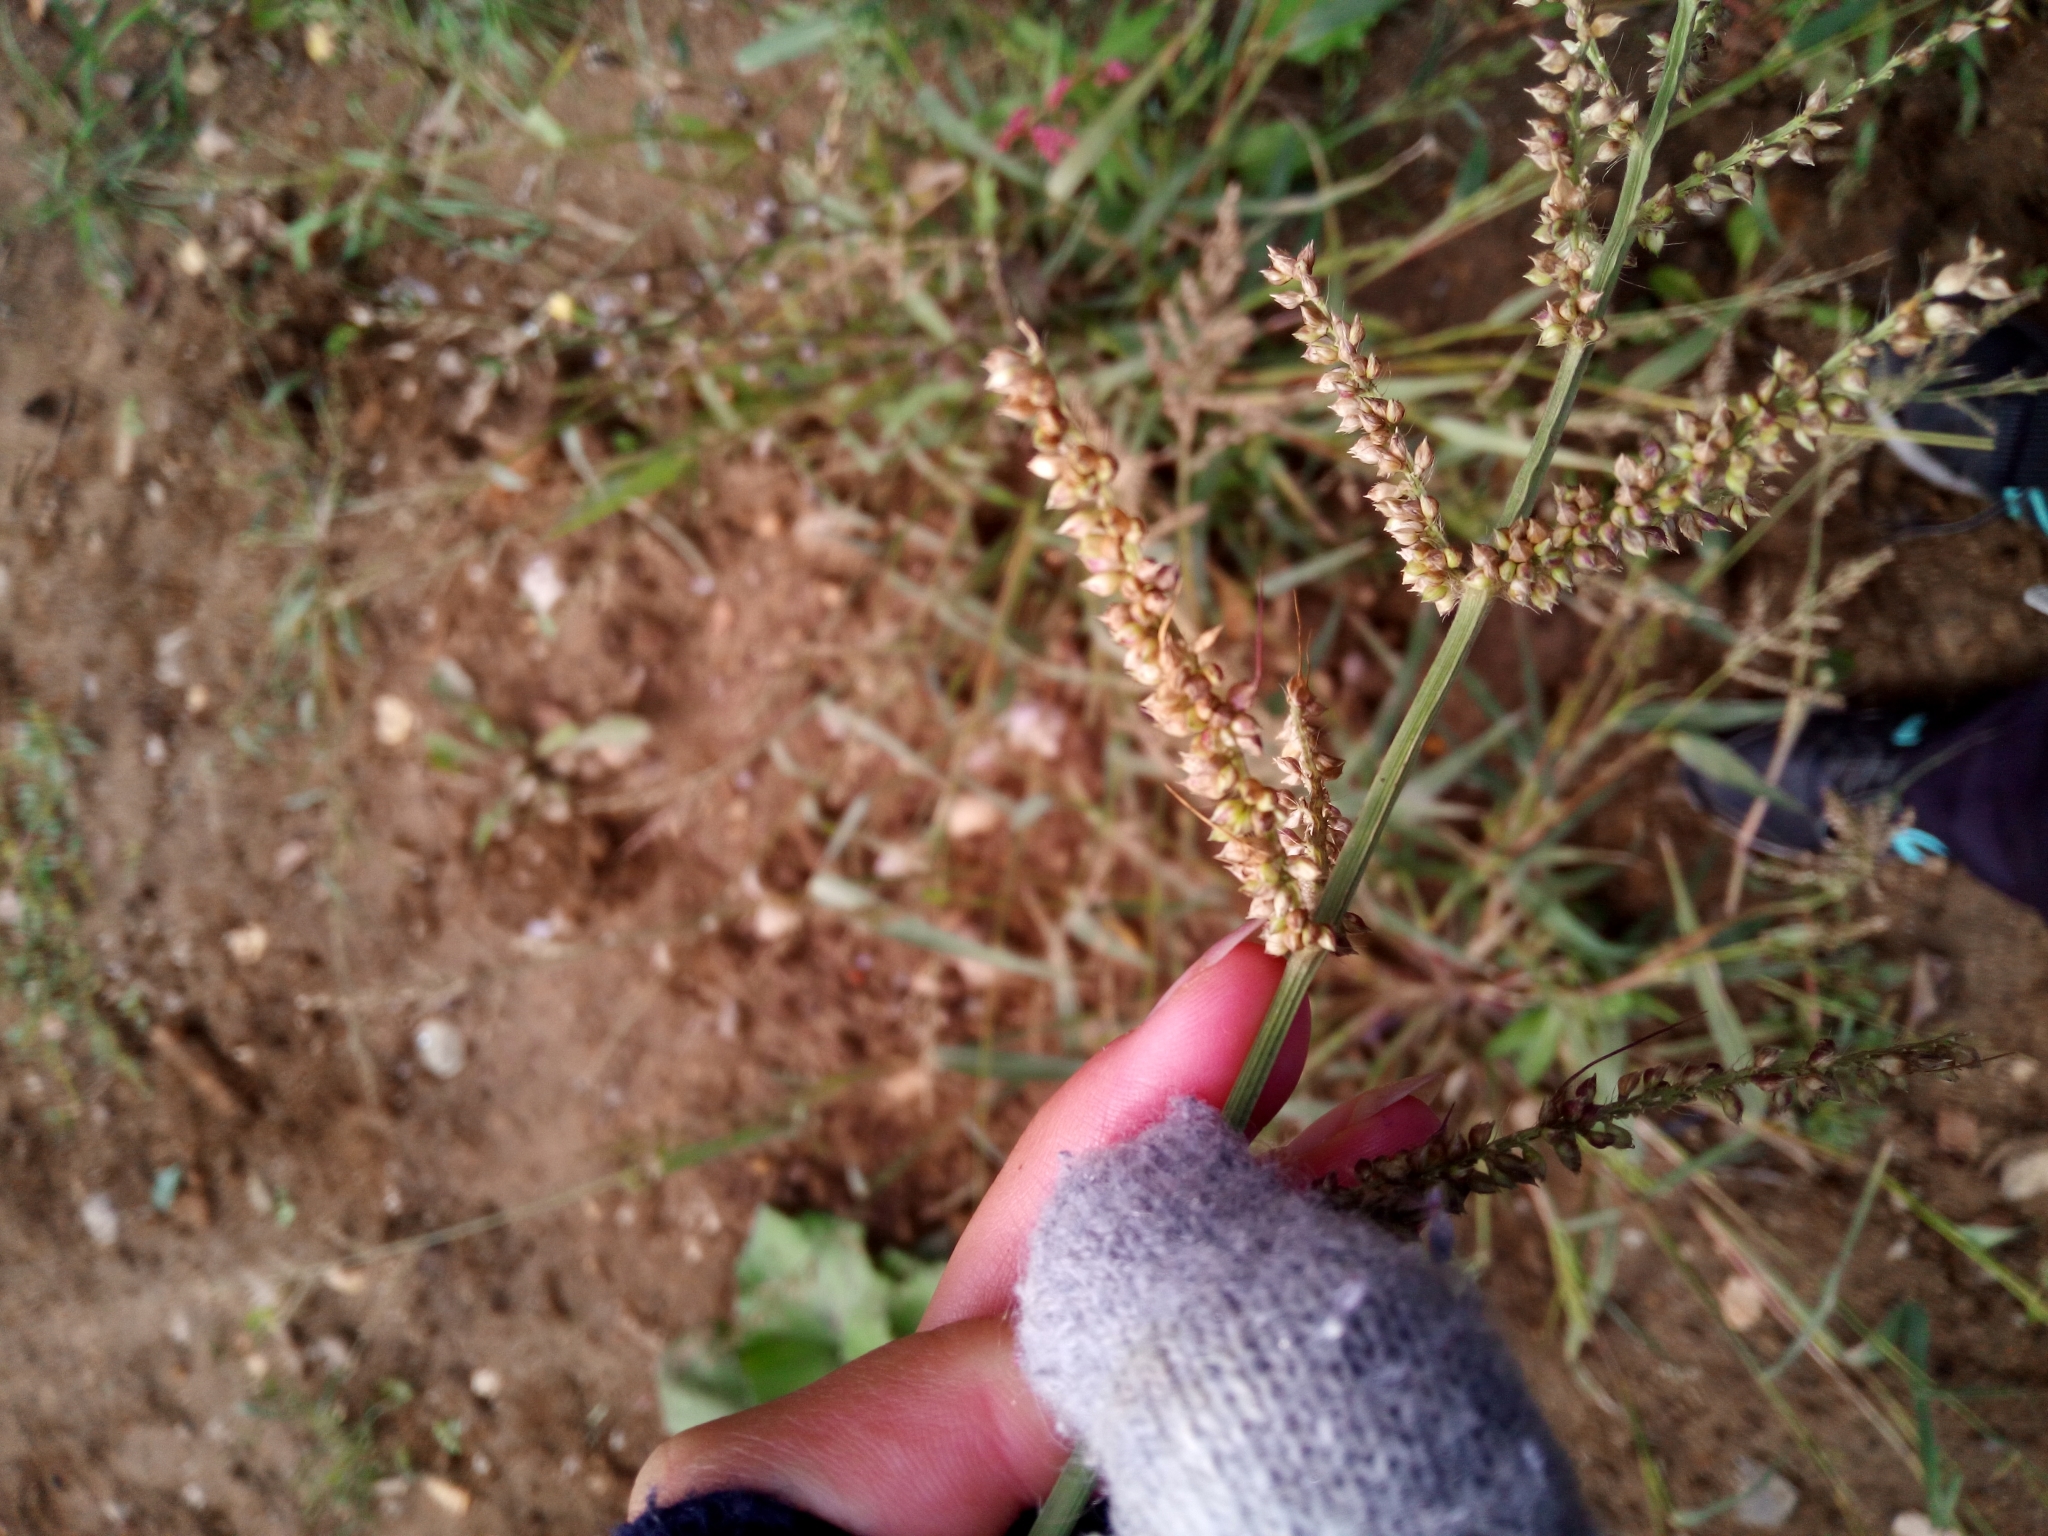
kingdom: Plantae
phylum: Tracheophyta
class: Liliopsida
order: Poales
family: Poaceae
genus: Echinochloa
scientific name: Echinochloa crus-galli
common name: Cockspur
